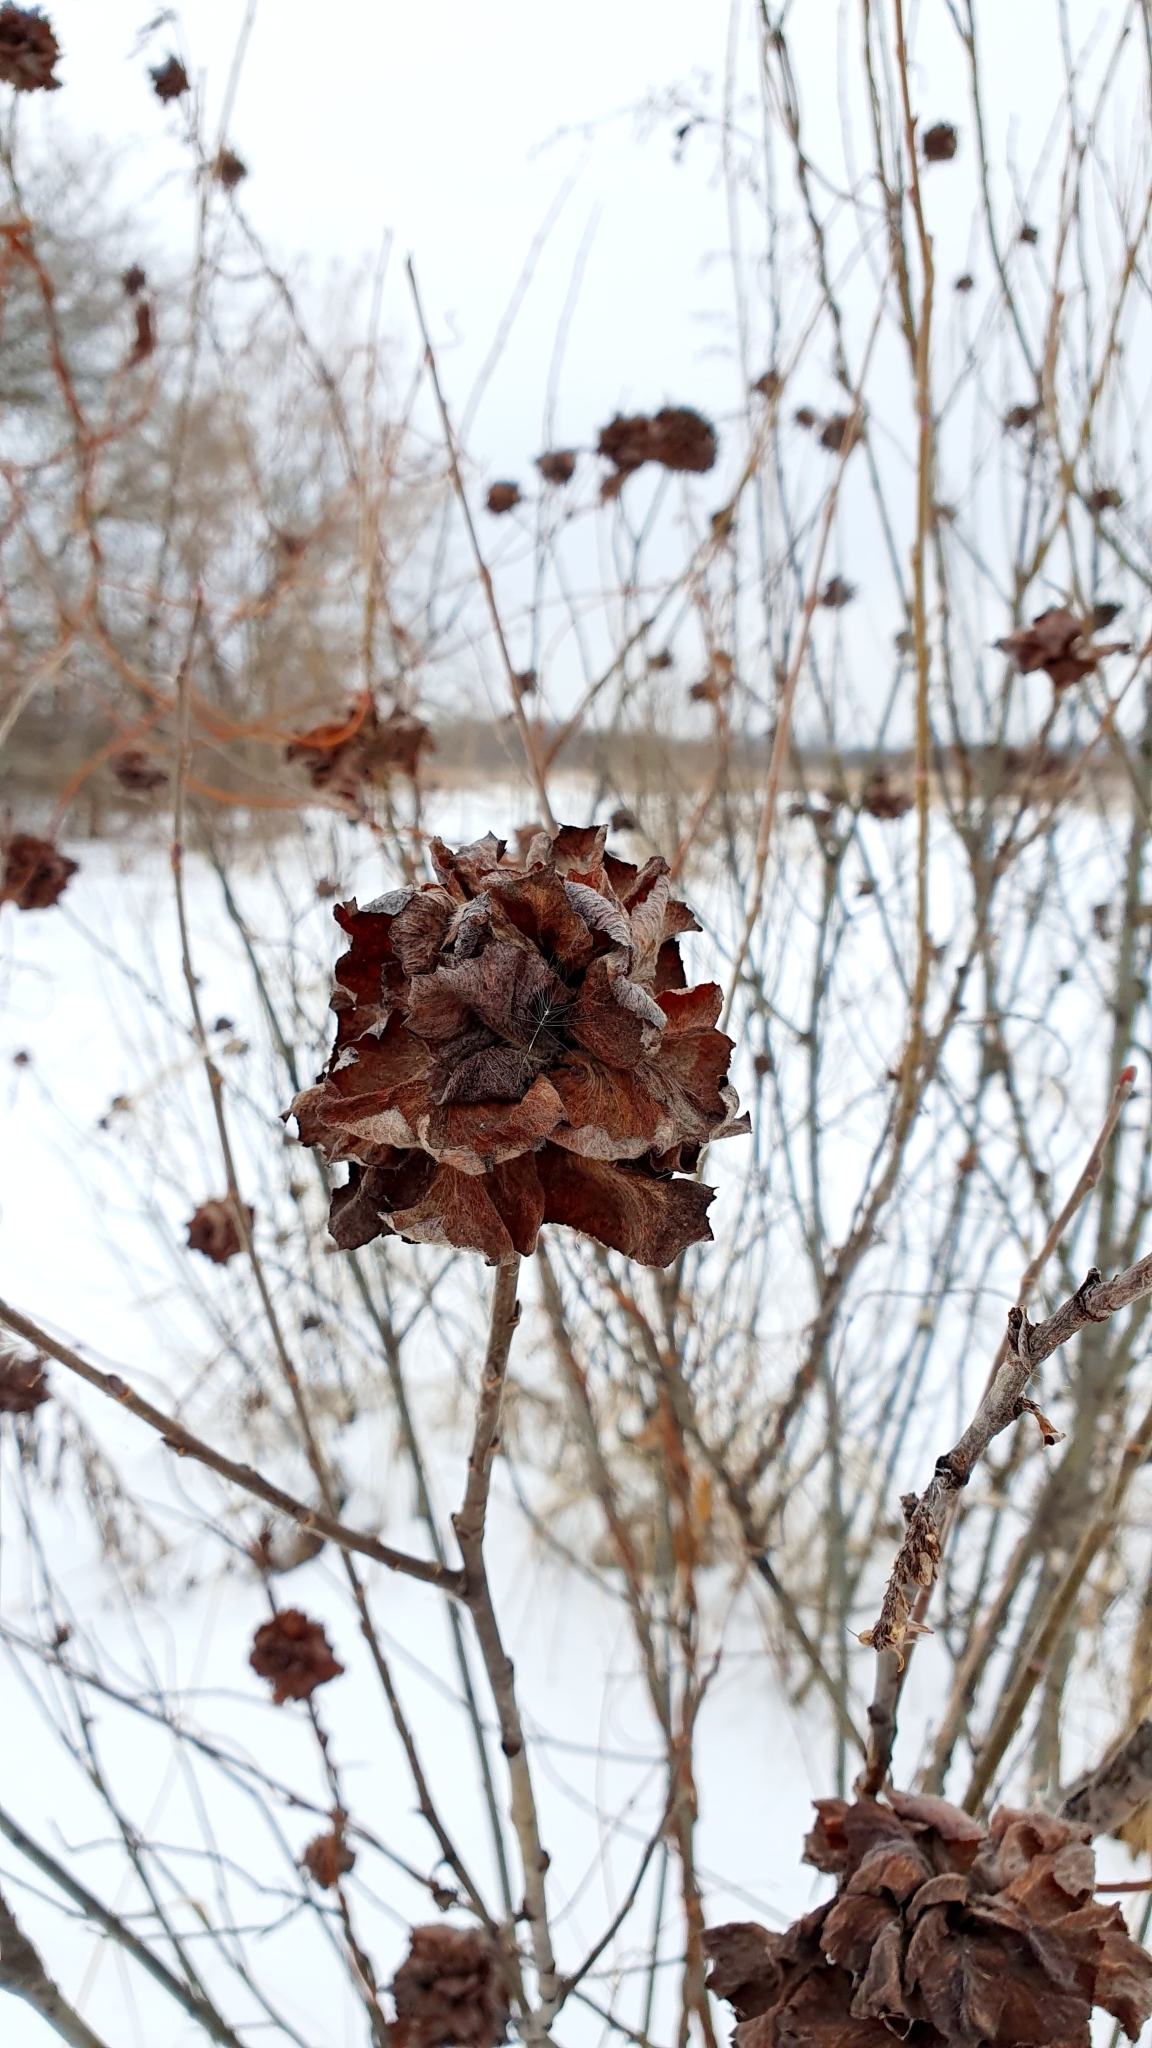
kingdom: Animalia
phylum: Arthropoda
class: Insecta
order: Diptera
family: Cecidomyiidae
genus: Rabdophaga
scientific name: Rabdophaga rosaria
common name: Willow rose gall midge
